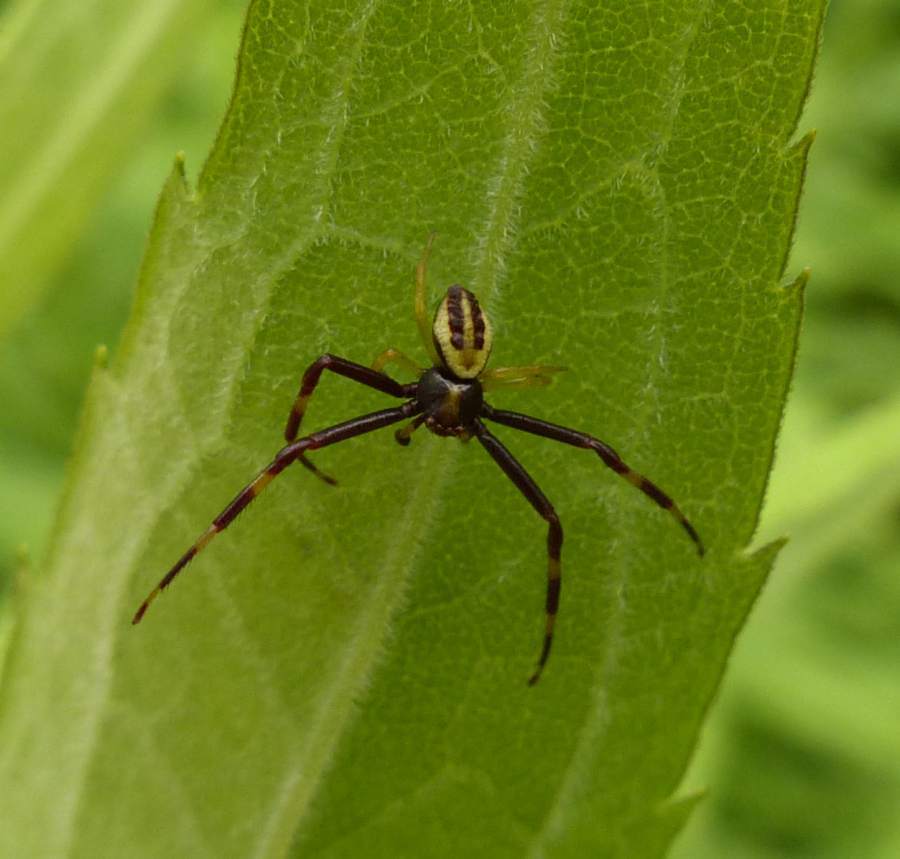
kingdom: Animalia
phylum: Arthropoda
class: Arachnida
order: Araneae
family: Thomisidae
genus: Misumena
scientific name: Misumena vatia
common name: Goldenrod crab spider
